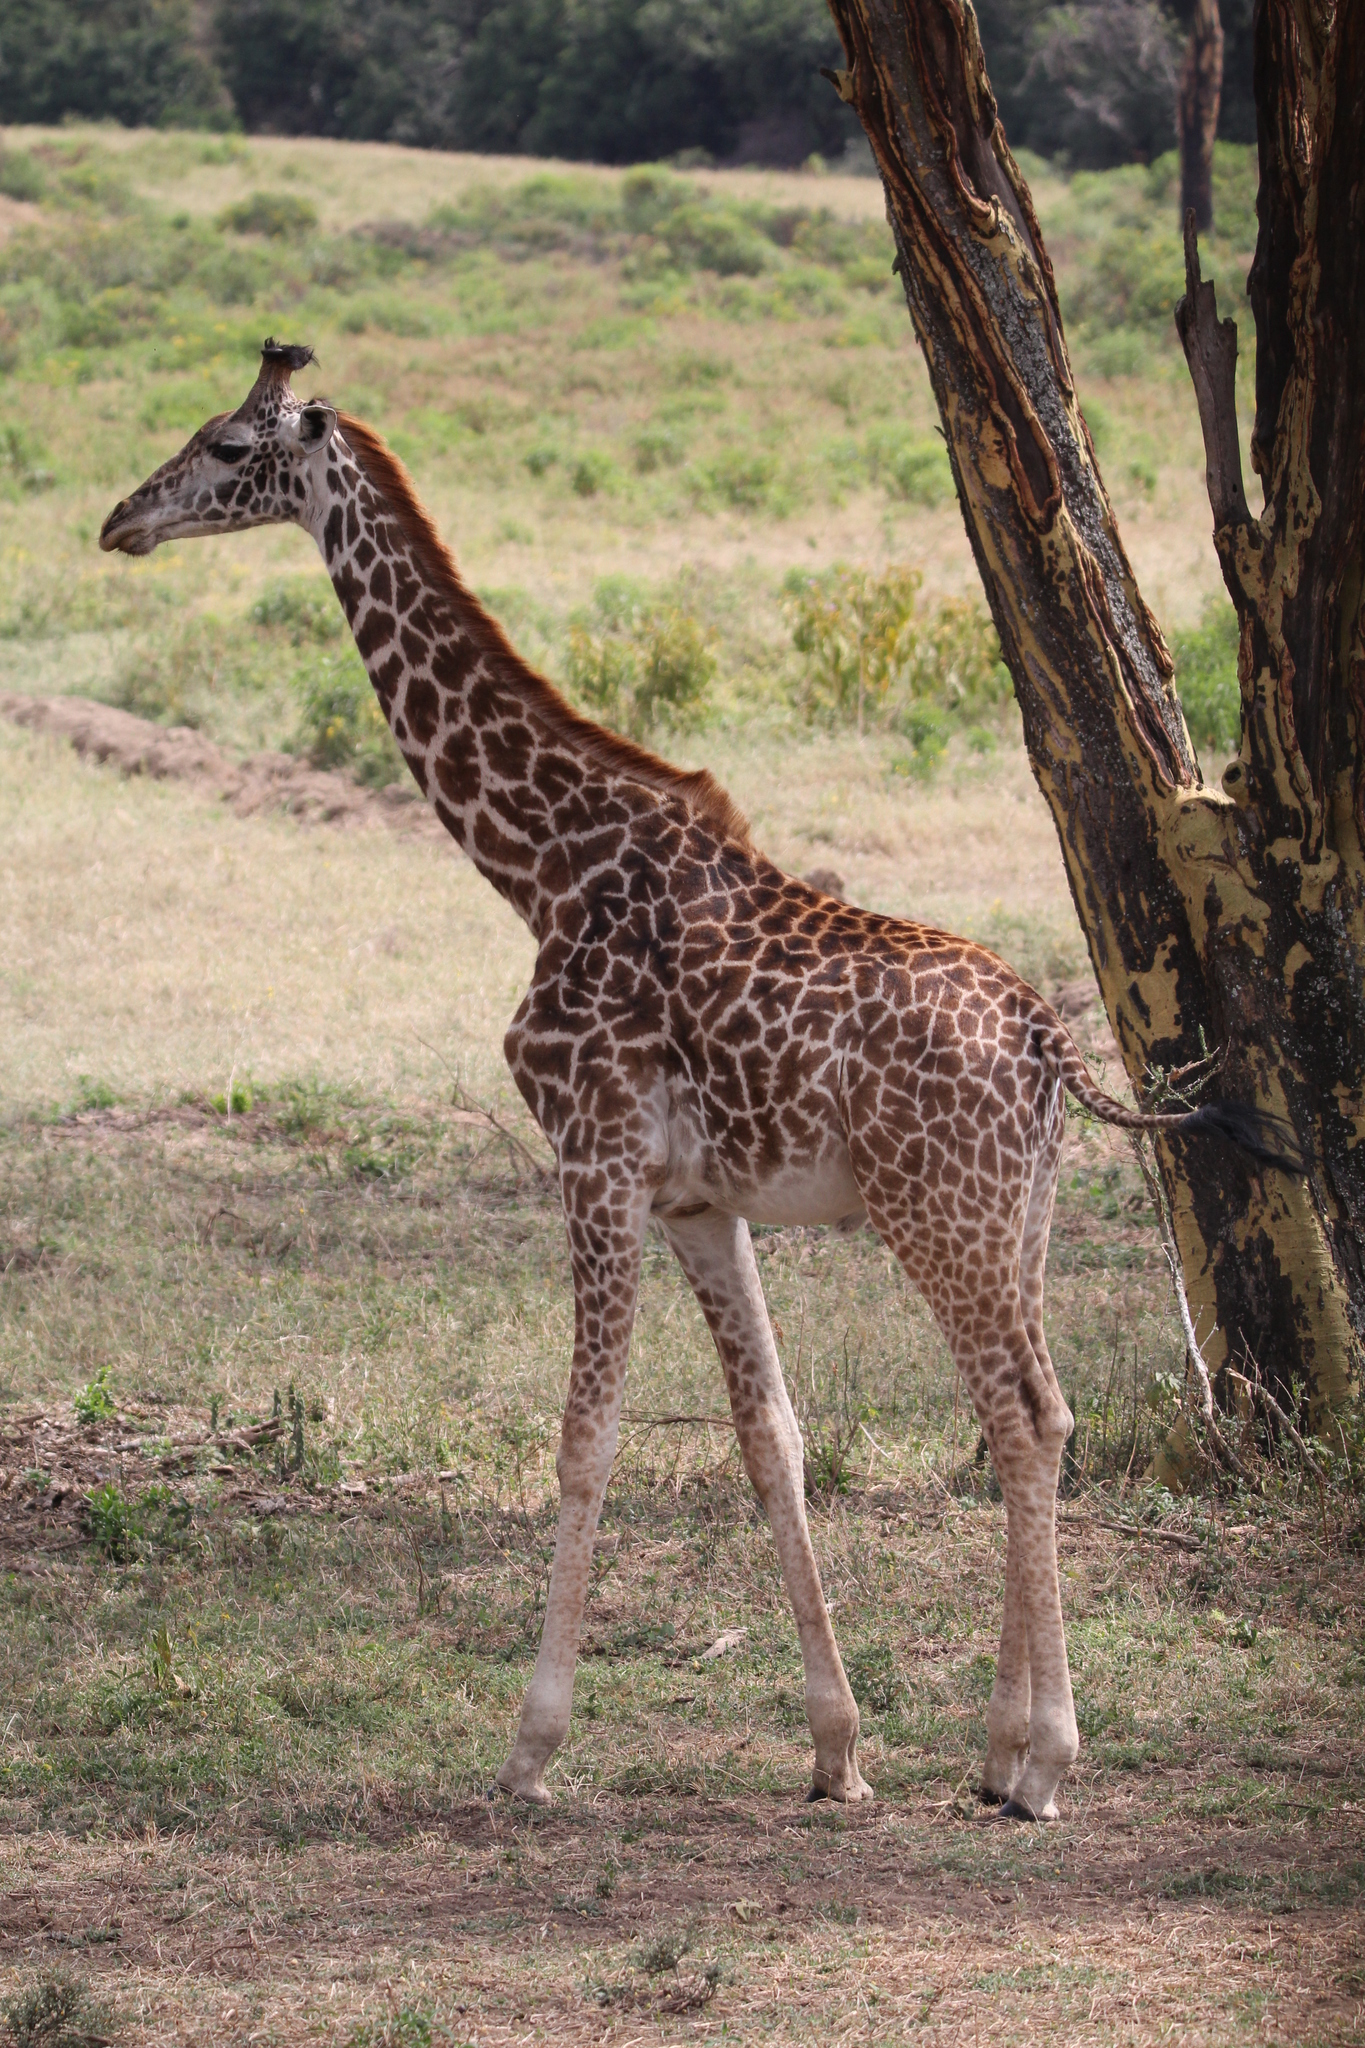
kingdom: Animalia
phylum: Chordata
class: Mammalia
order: Artiodactyla
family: Giraffidae
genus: Giraffa
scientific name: Giraffa tippelskirchi
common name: Masai giraffe
